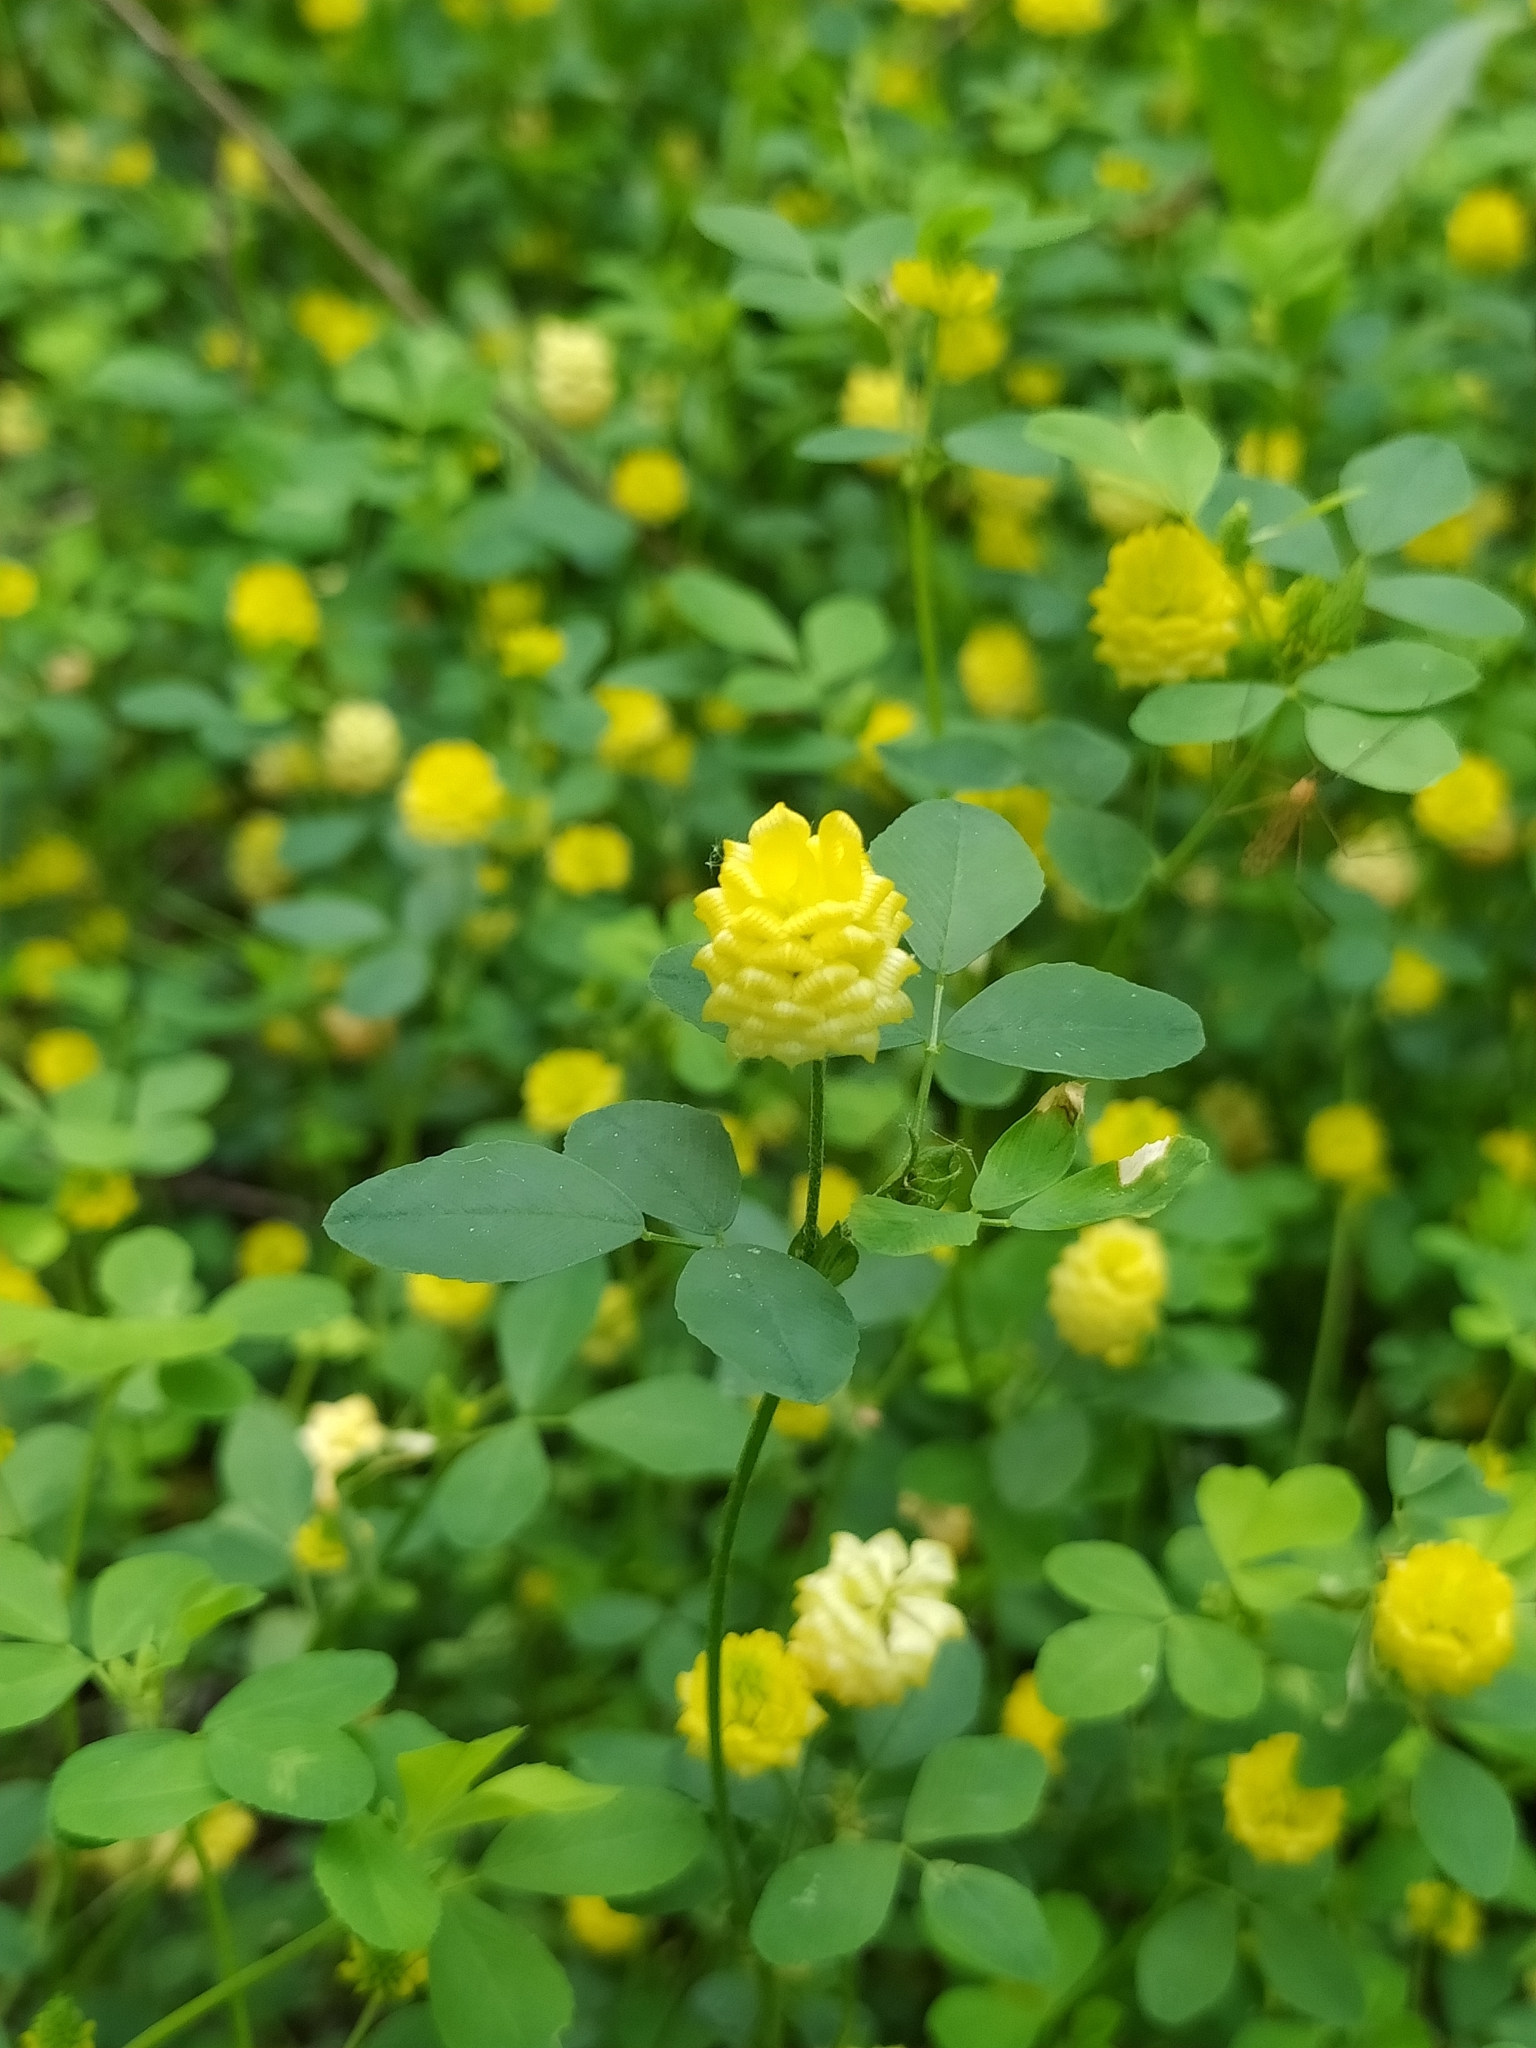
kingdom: Plantae
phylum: Tracheophyta
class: Magnoliopsida
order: Fabales
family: Fabaceae
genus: Trifolium
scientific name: Trifolium campestre
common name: Field clover
